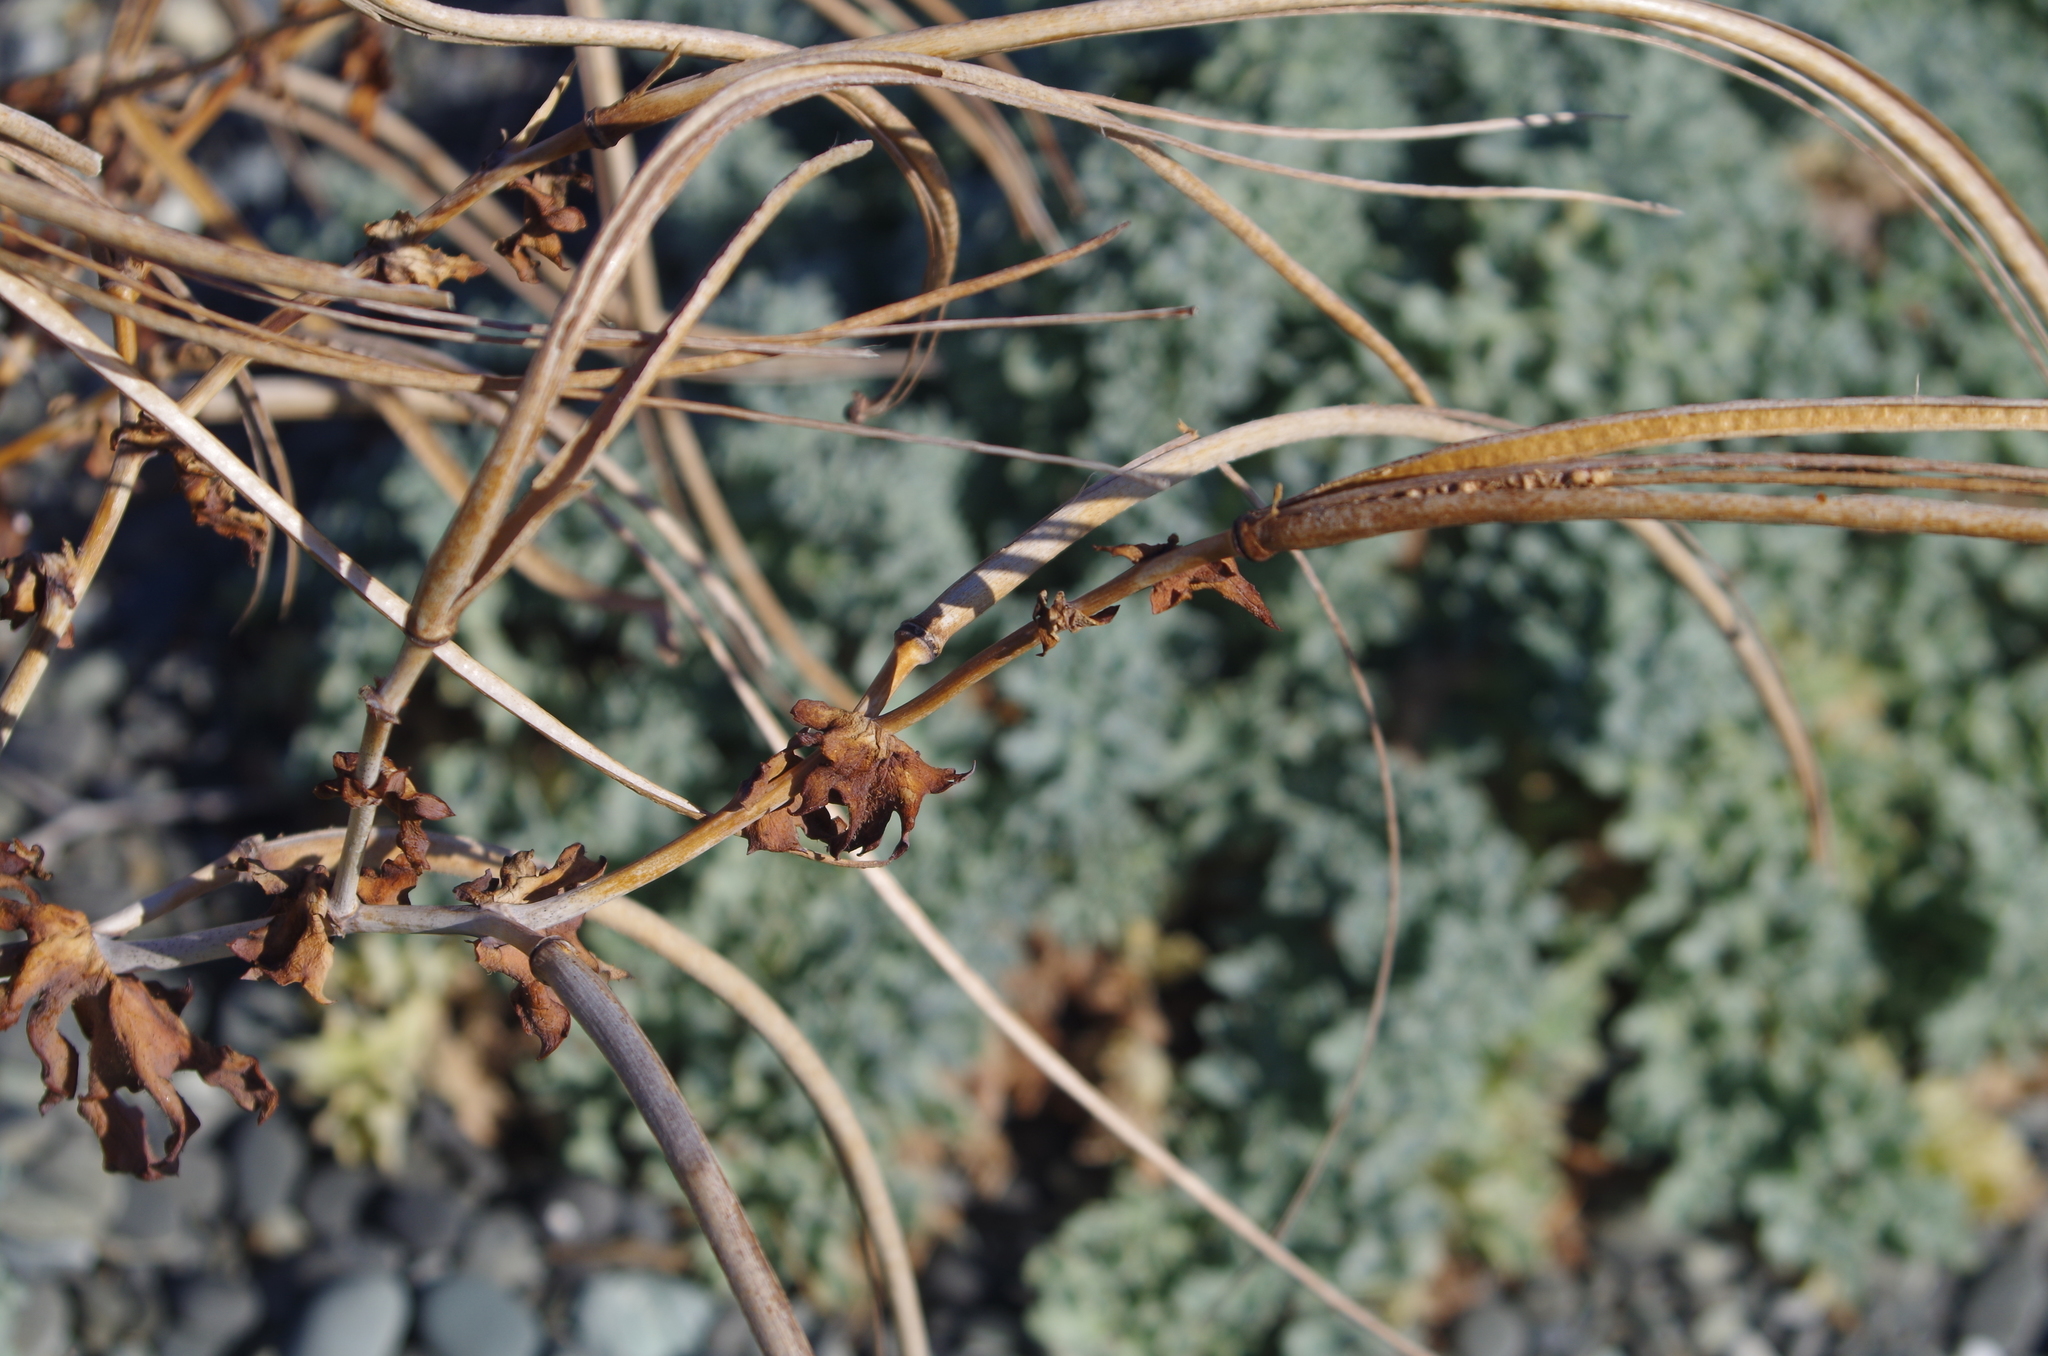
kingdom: Plantae
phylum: Tracheophyta
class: Magnoliopsida
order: Ranunculales
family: Papaveraceae
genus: Glaucium
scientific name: Glaucium flavum
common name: Yellow horned-poppy
